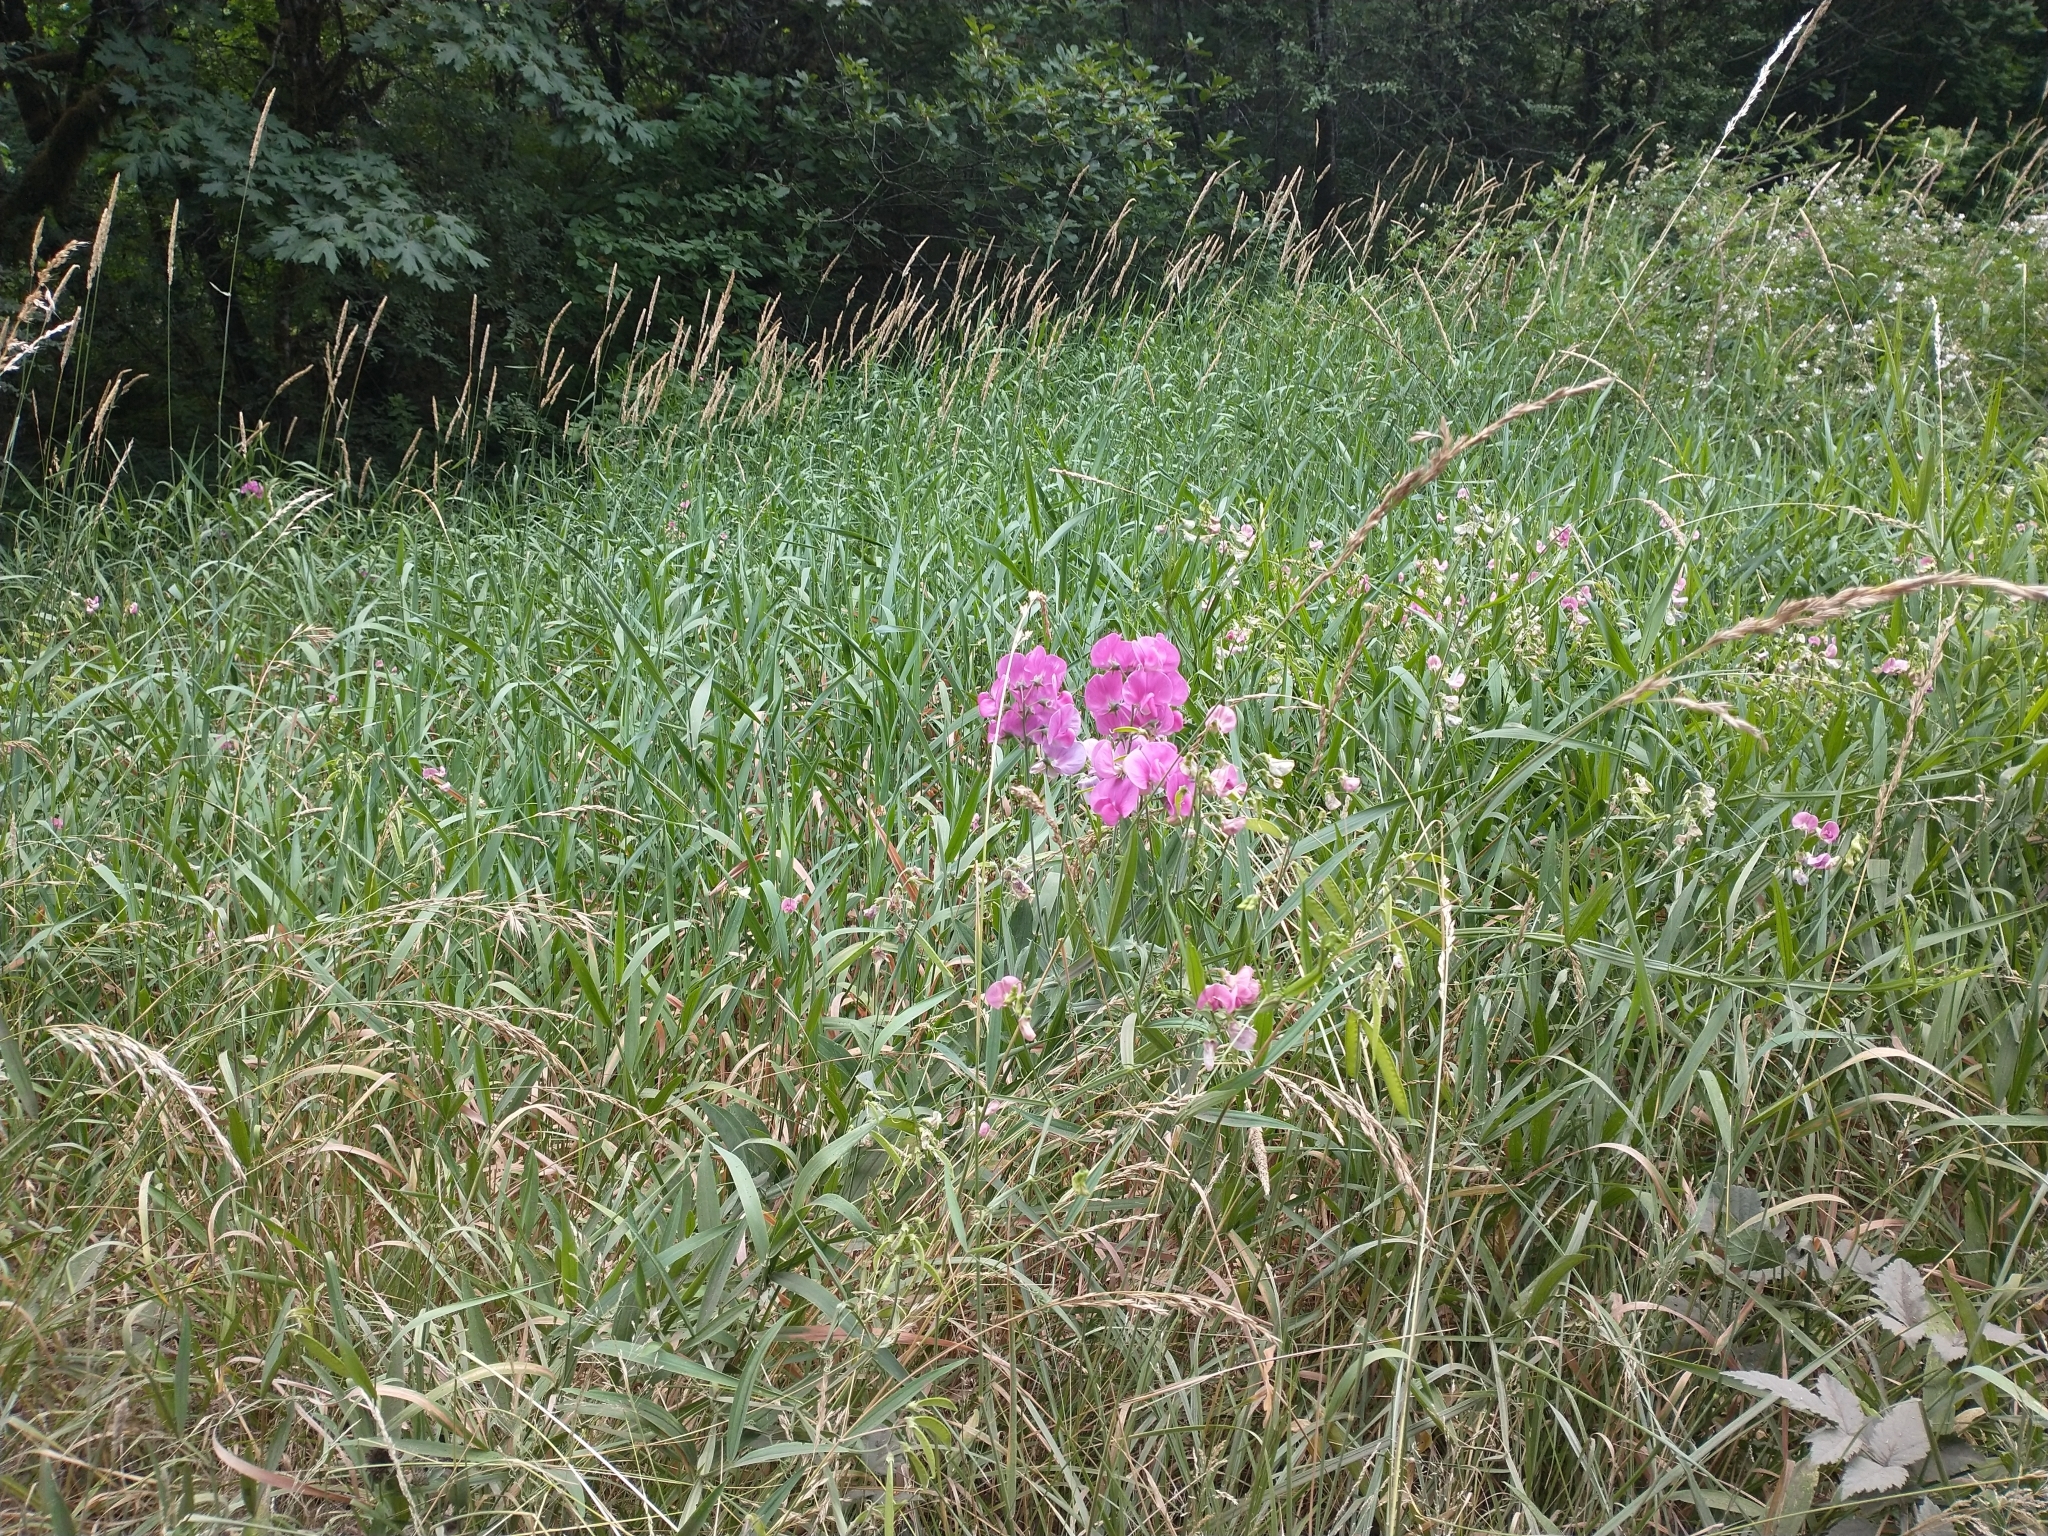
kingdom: Plantae
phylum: Tracheophyta
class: Magnoliopsida
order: Fabales
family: Fabaceae
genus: Lathyrus
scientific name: Lathyrus latifolius
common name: Perennial pea
